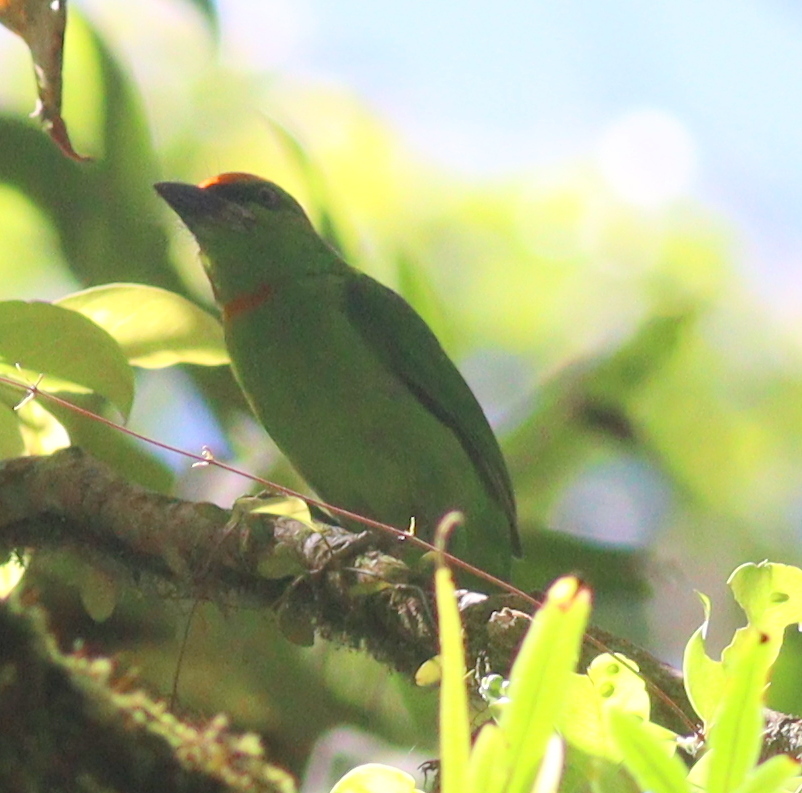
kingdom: Animalia
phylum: Chordata
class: Aves
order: Piciformes
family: Megalaimidae
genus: Psilopogon
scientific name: Psilopogon armillaris
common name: Flame-fronted barbet
